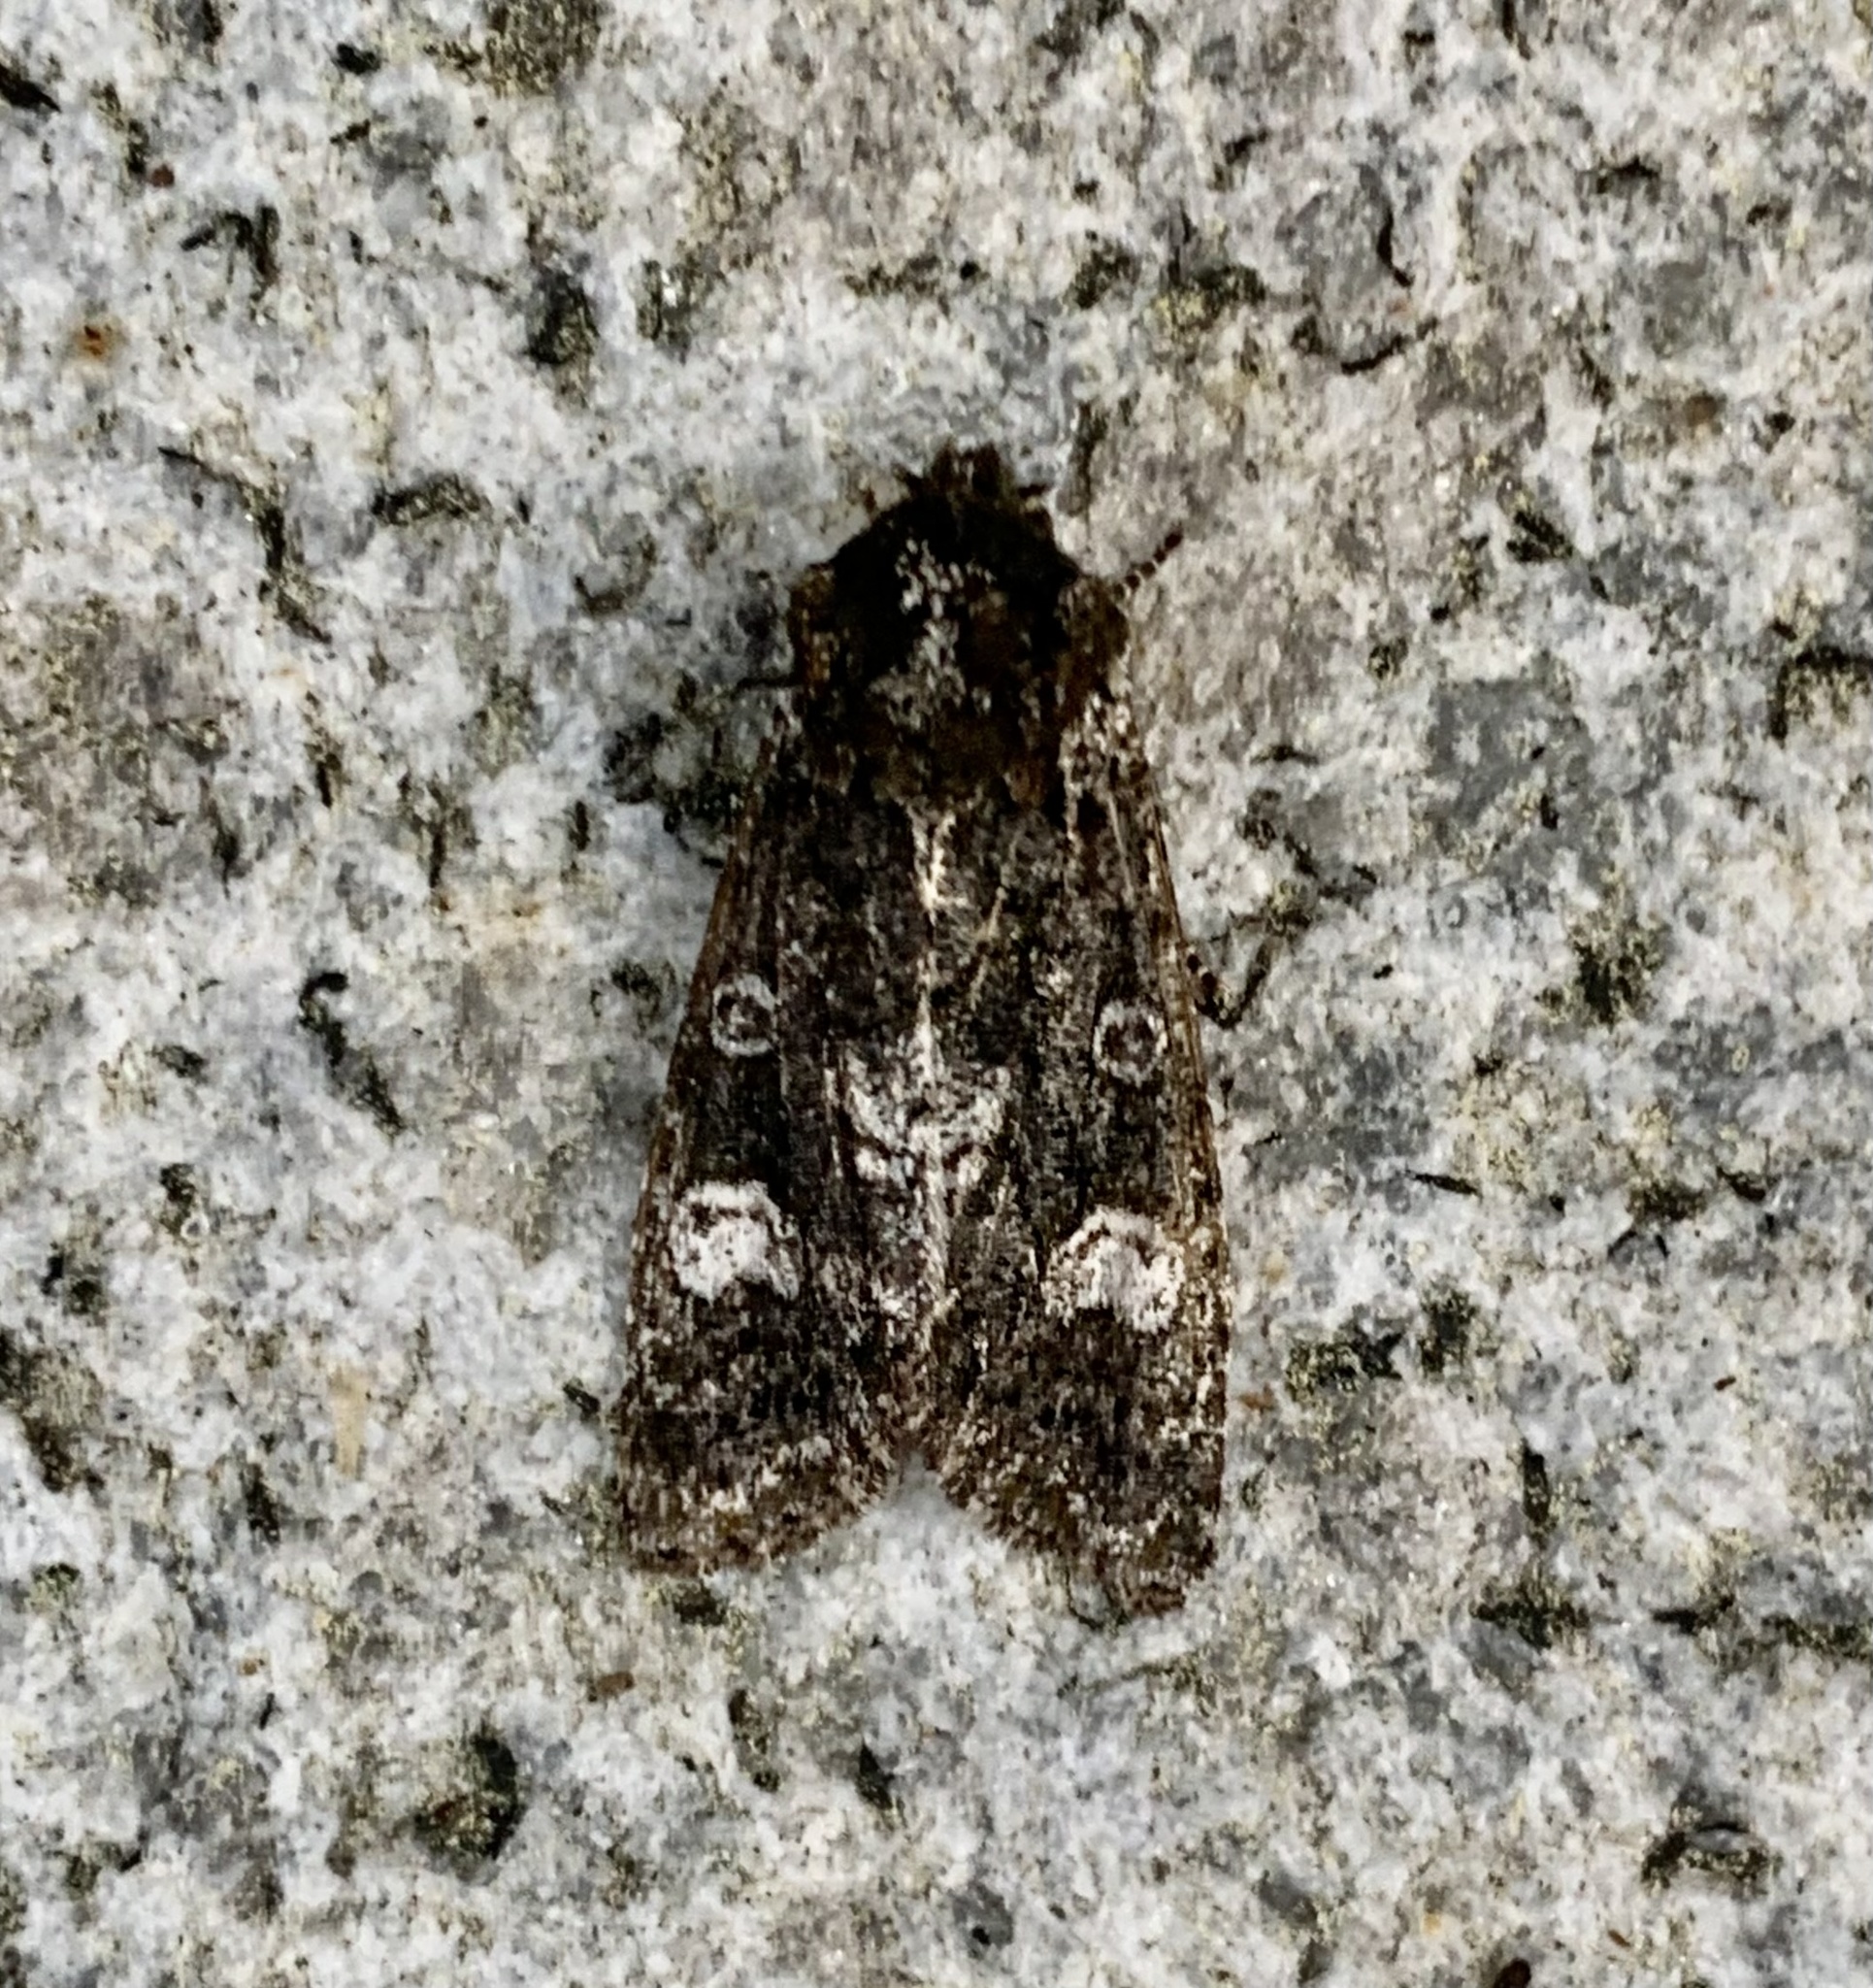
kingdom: Animalia
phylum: Arthropoda
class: Insecta
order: Lepidoptera
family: Noctuidae
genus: Psaphida
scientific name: Psaphida grotei
